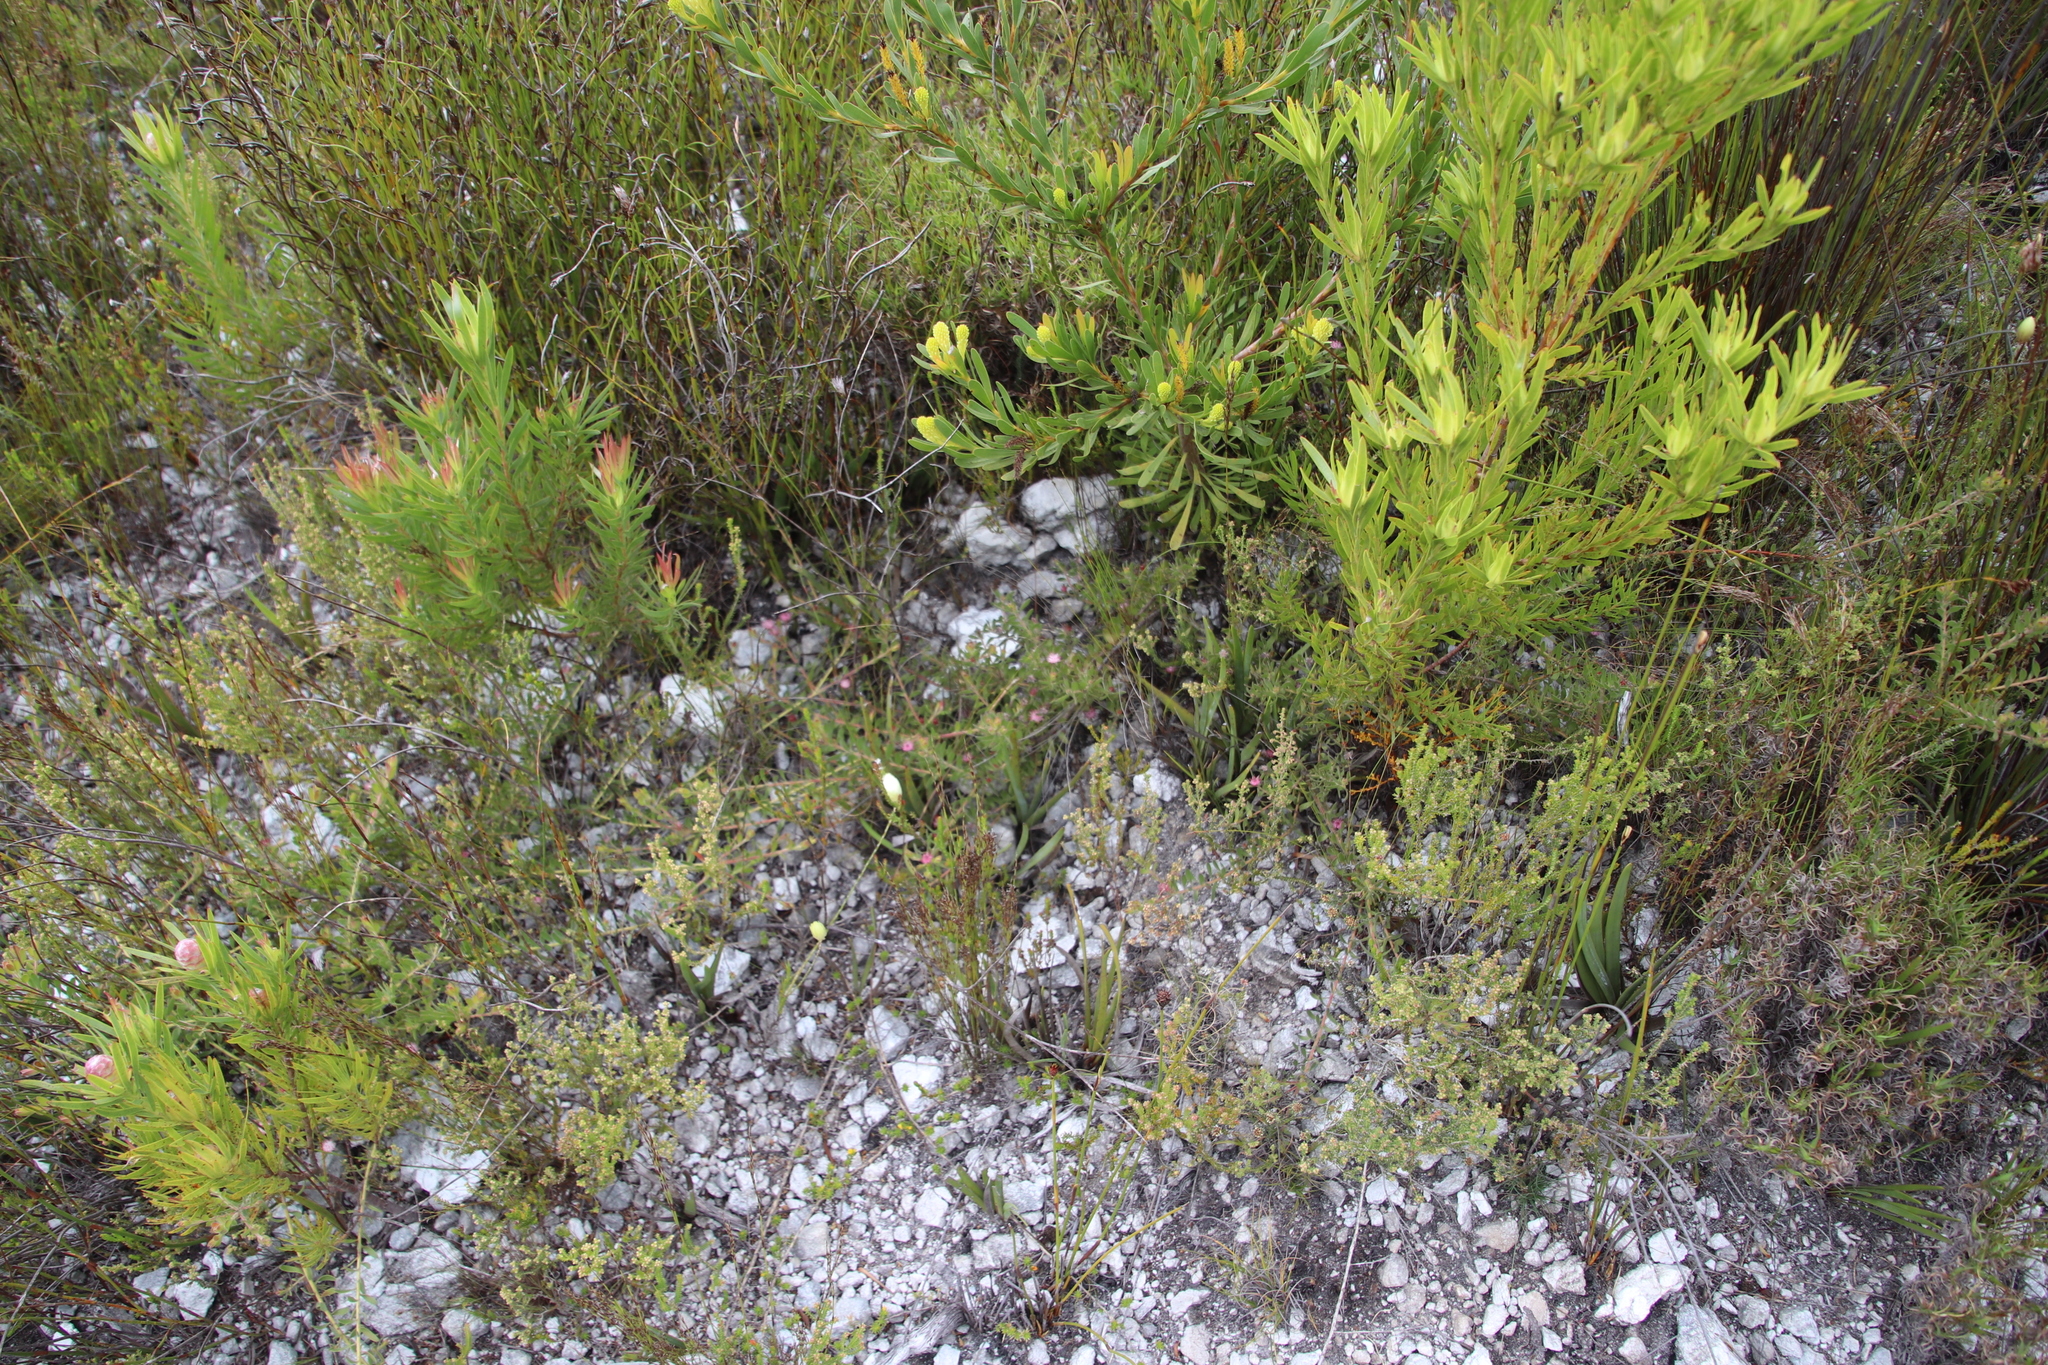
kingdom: Plantae
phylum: Tracheophyta
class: Magnoliopsida
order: Proteales
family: Proteaceae
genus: Diastella
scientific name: Diastella divaricata
